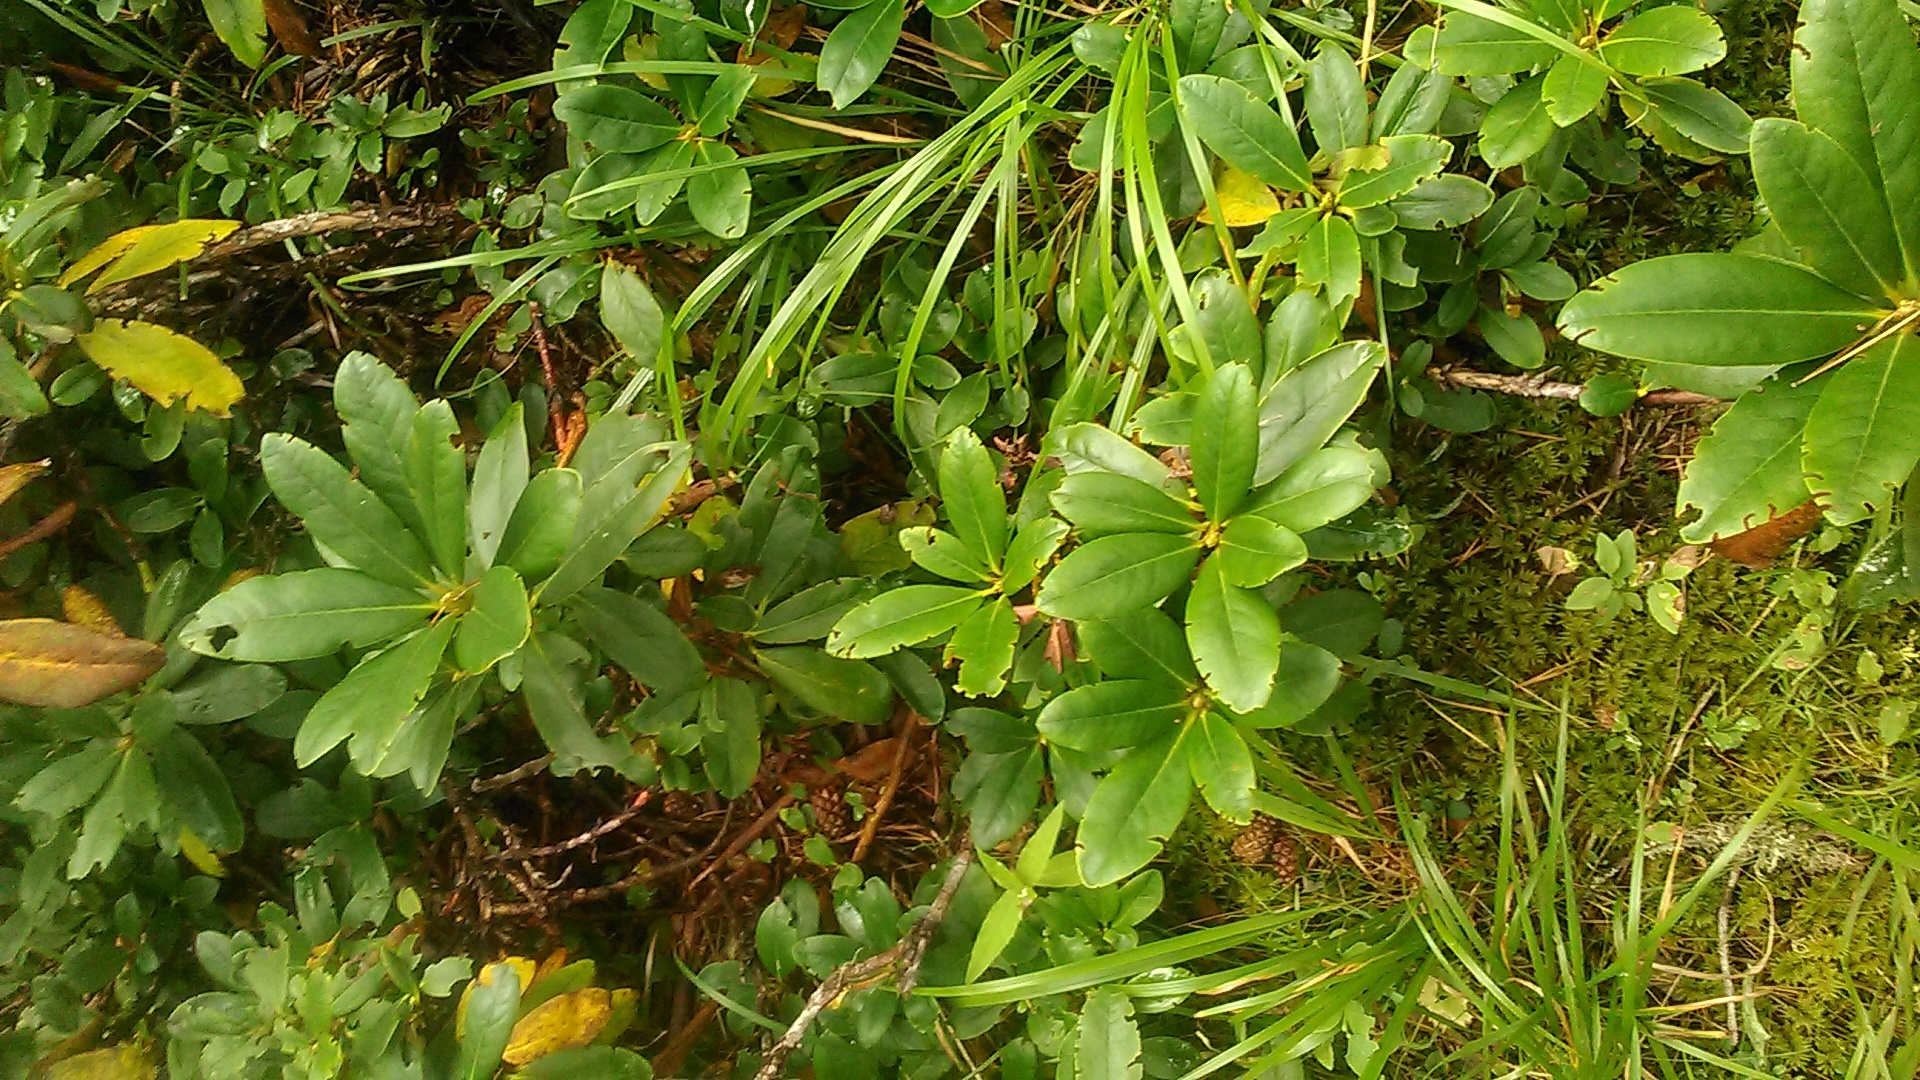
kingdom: Plantae
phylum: Tracheophyta
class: Magnoliopsida
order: Ericales
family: Ericaceae
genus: Rhododendron
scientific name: Rhododendron caucasicum
